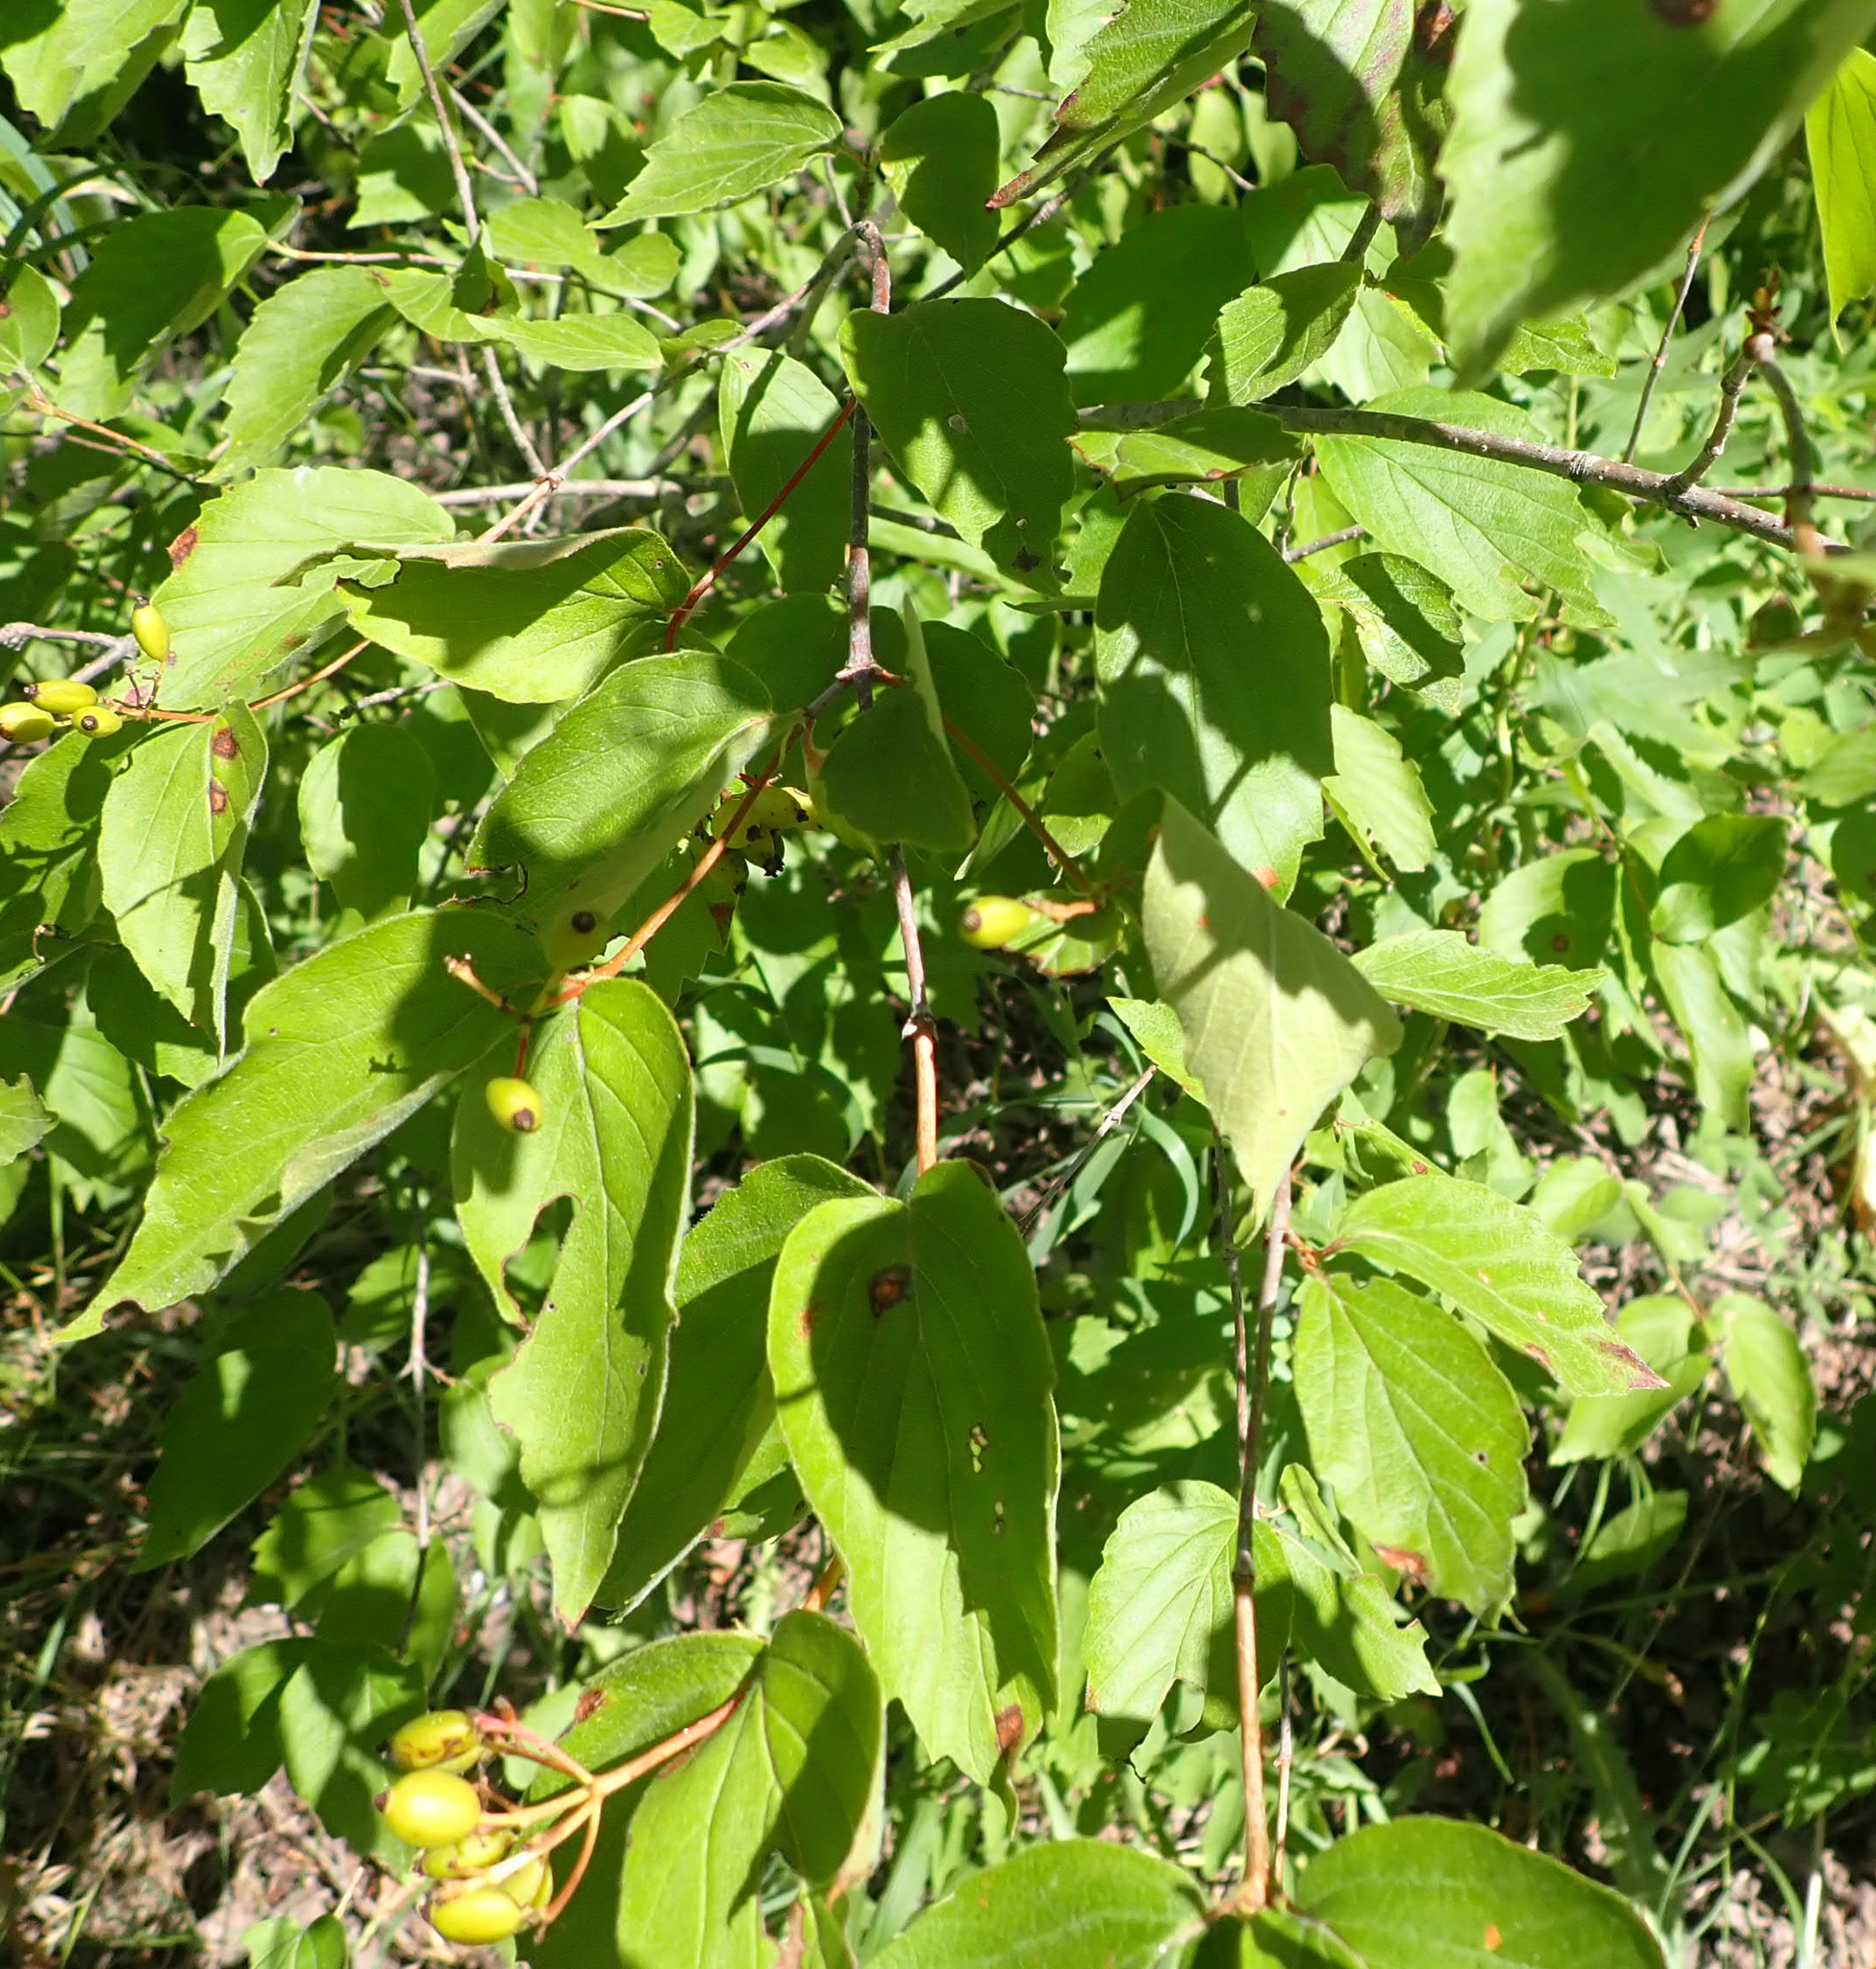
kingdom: Plantae
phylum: Tracheophyta
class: Magnoliopsida
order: Dipsacales
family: Viburnaceae
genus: Viburnum
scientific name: Viburnum rafinesqueanum
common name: Downy arrow-wood
